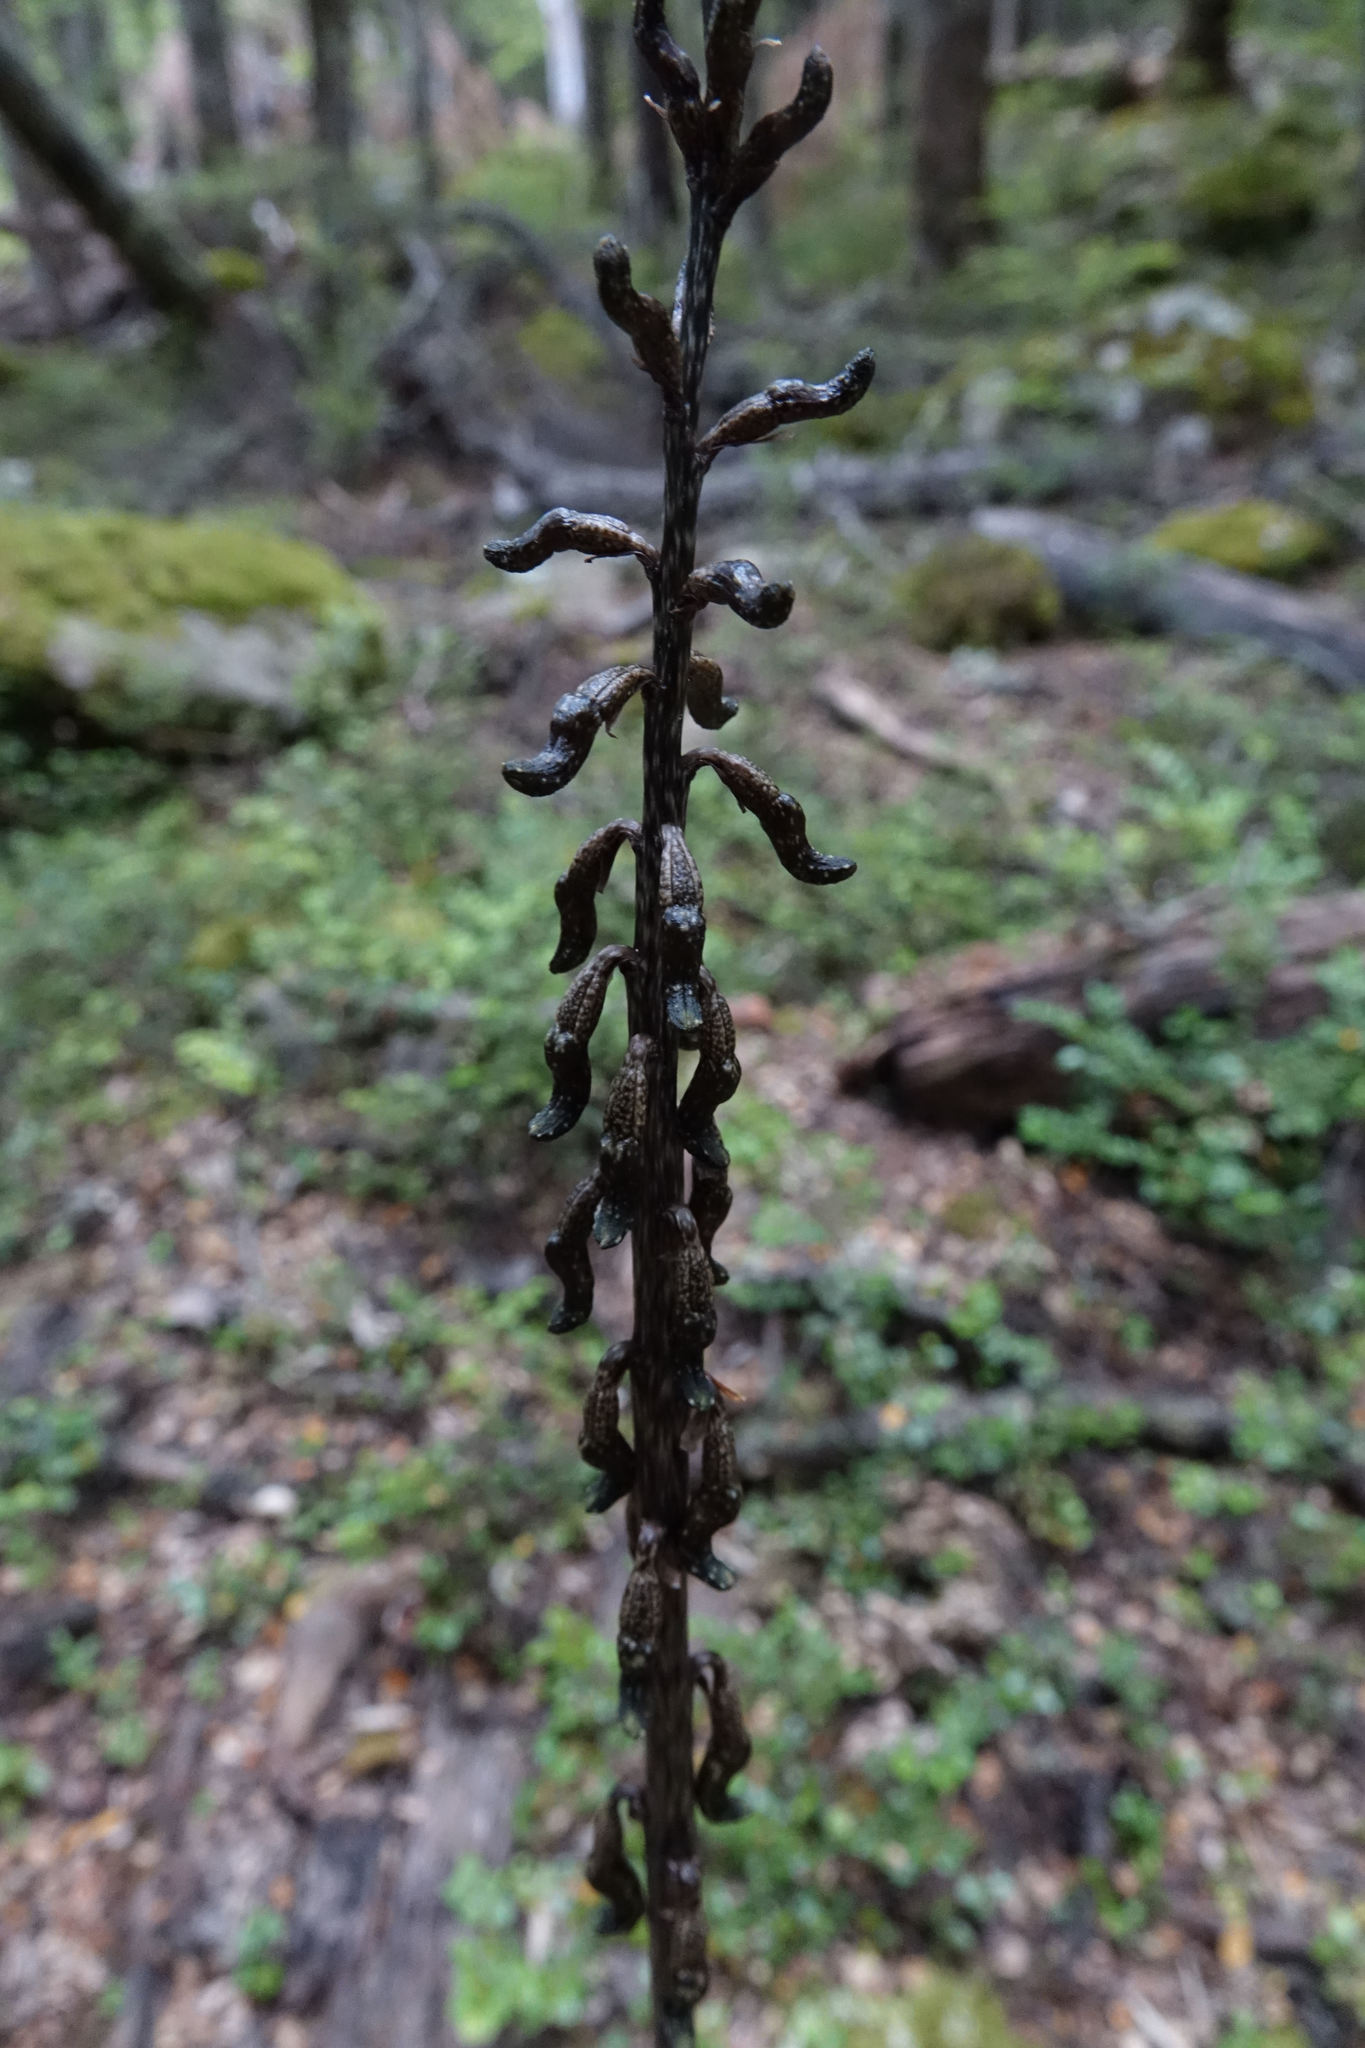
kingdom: Plantae
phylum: Tracheophyta
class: Liliopsida
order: Asparagales
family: Orchidaceae
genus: Gastrodia
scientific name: Gastrodia cunninghamii
